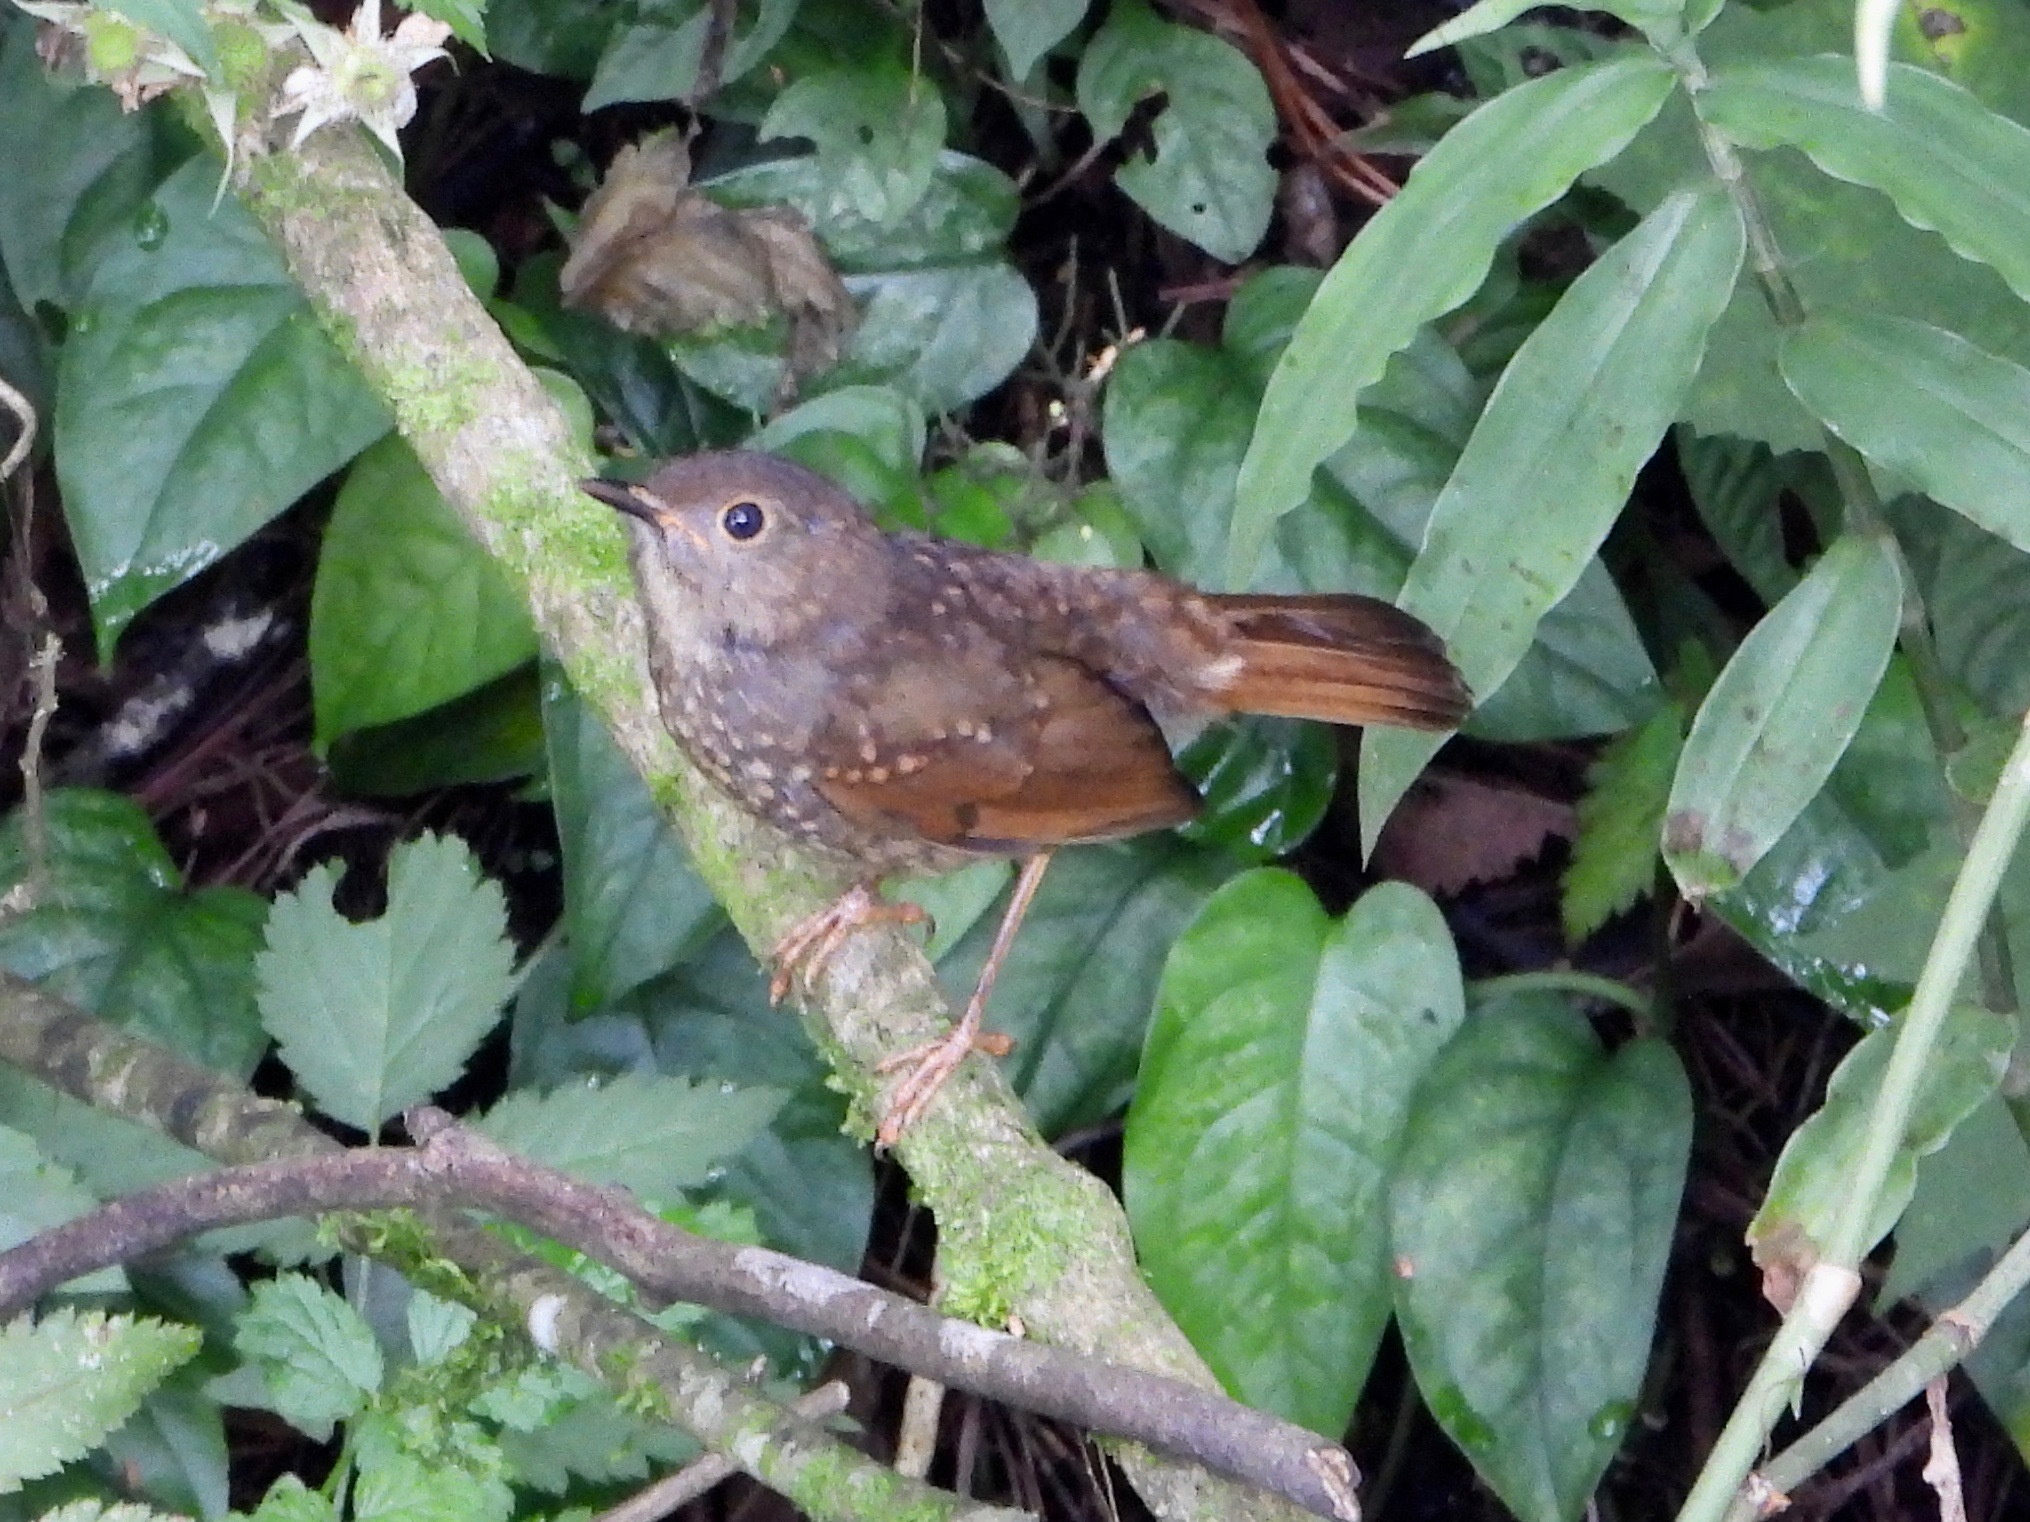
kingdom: Animalia
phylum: Chordata
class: Aves
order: Passeriformes
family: Turdidae
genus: Catharus
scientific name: Catharus aurantiirostris
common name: Orange-billed nightingale-thrush
